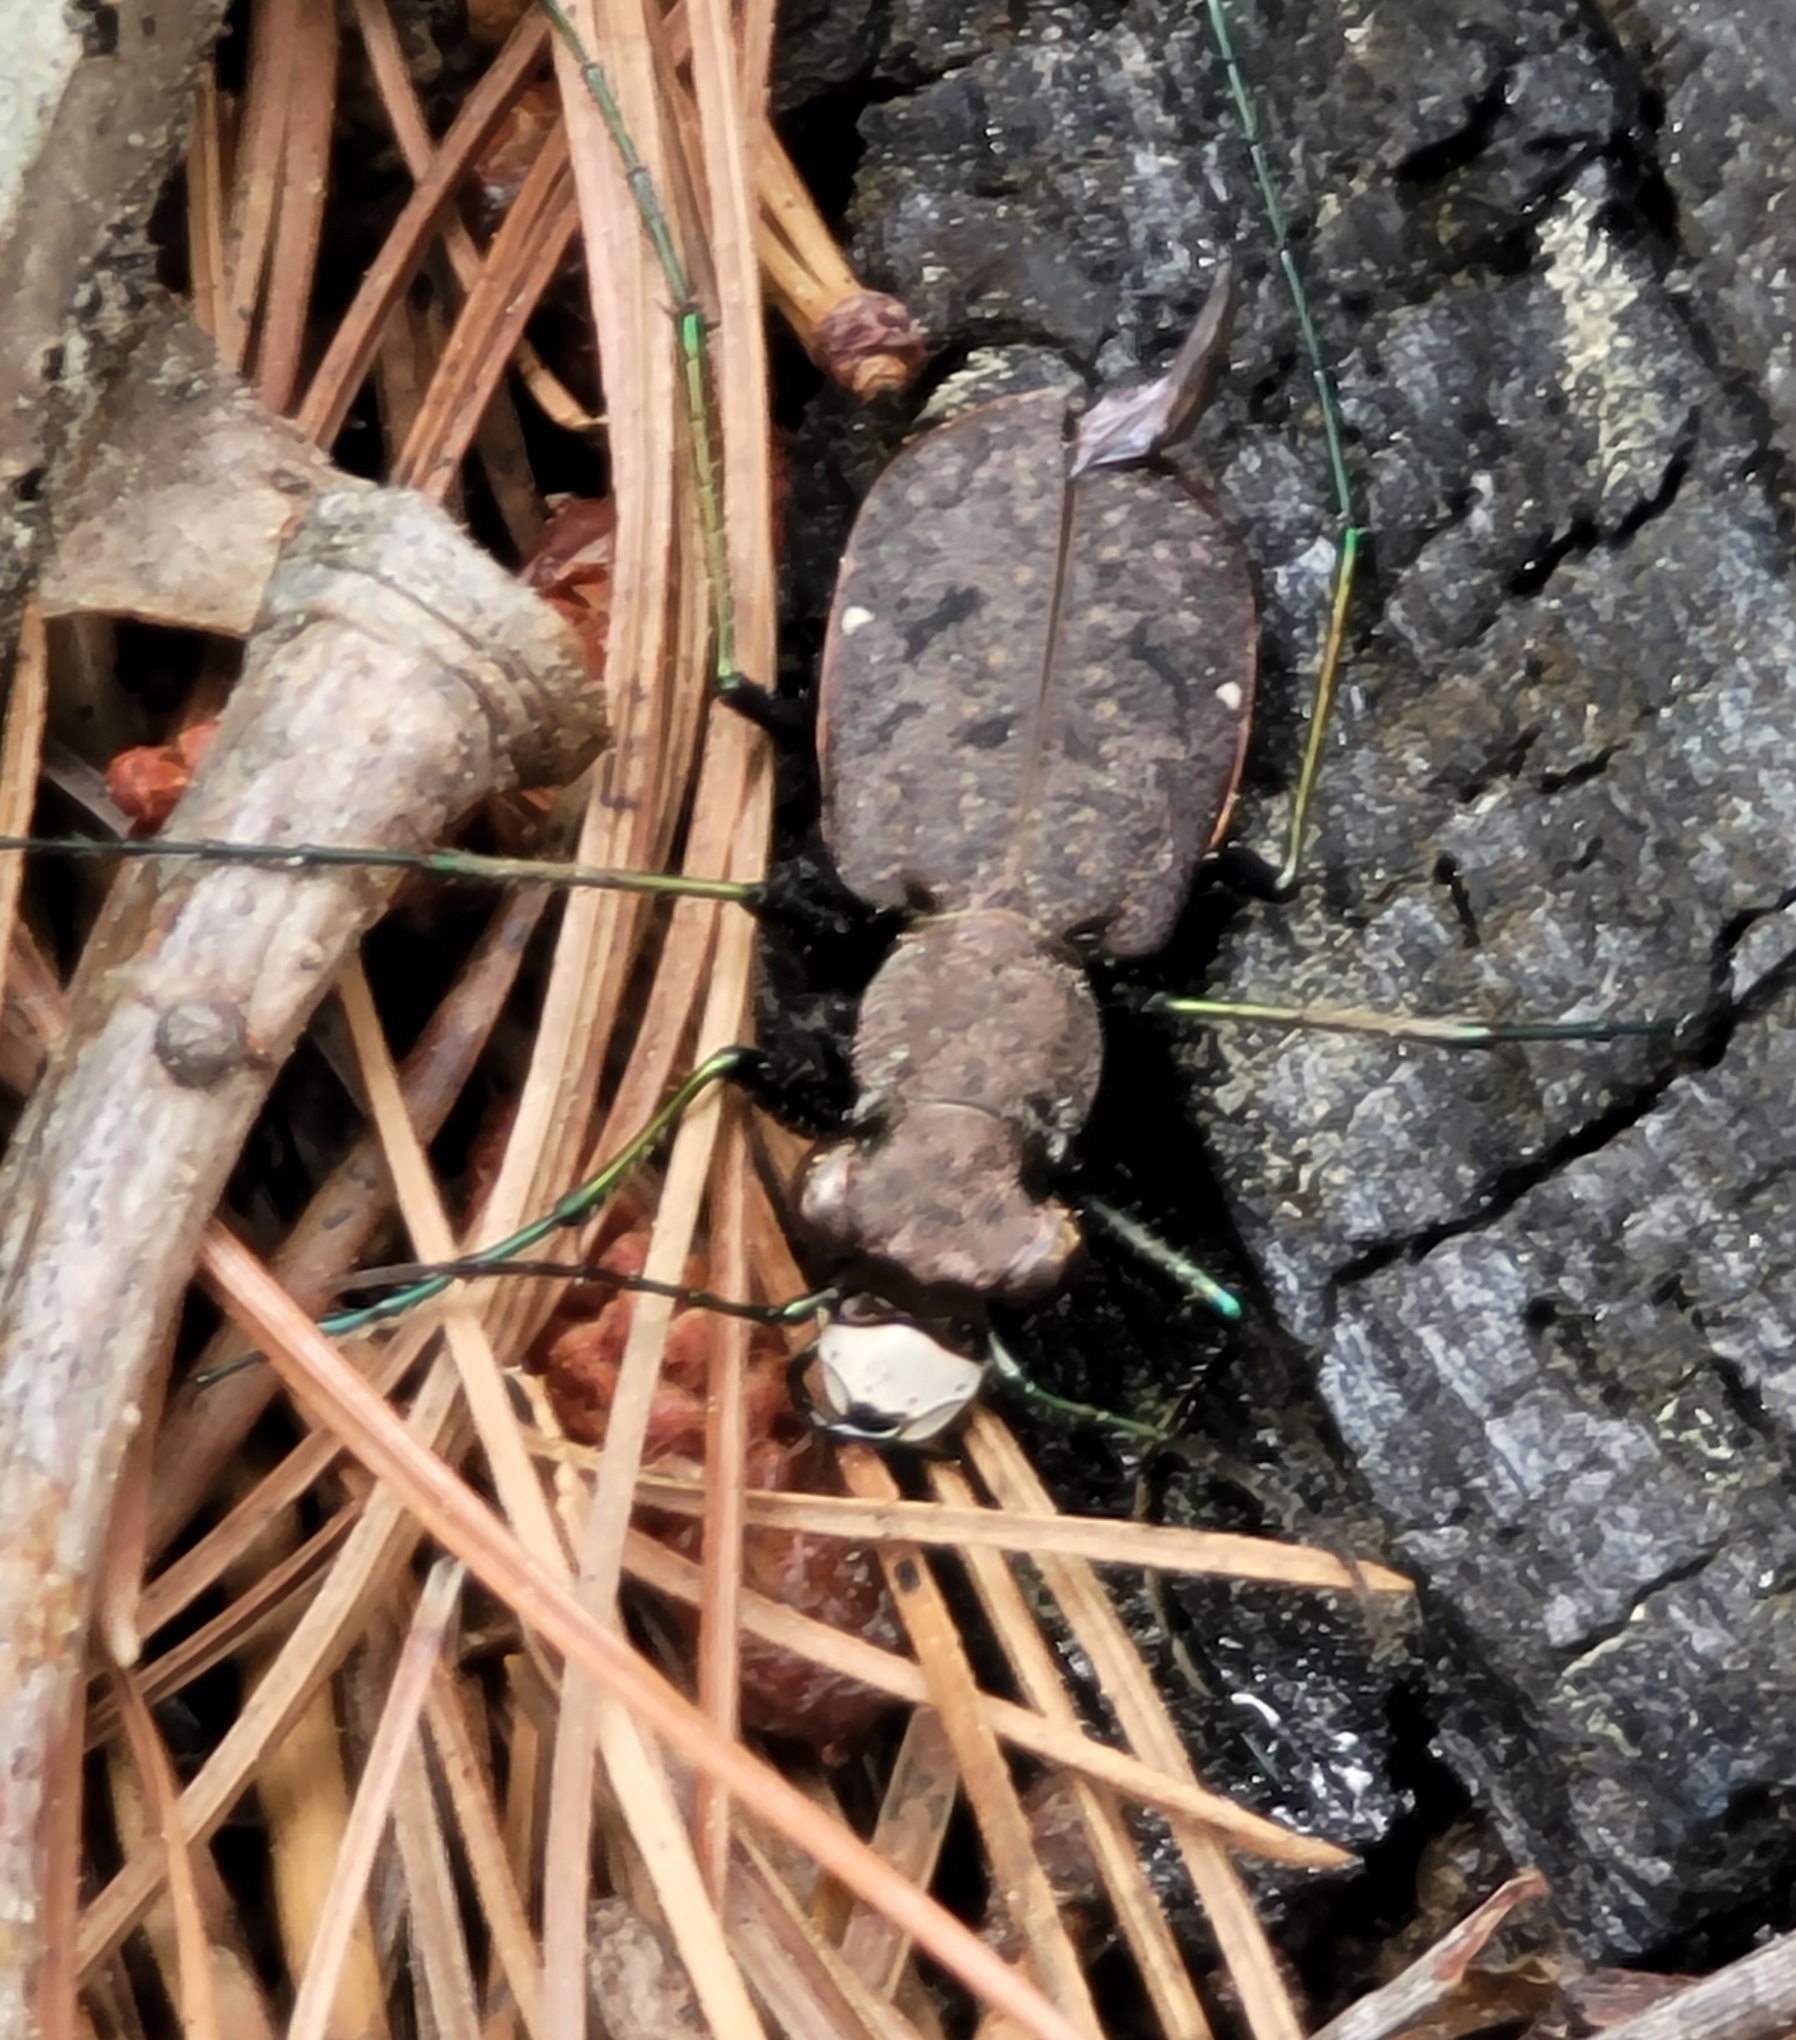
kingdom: Animalia
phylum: Arthropoda
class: Insecta
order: Coleoptera
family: Carabidae
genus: Cylindera
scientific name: Cylindera unipunctata
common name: One-spotted tiger beetle
